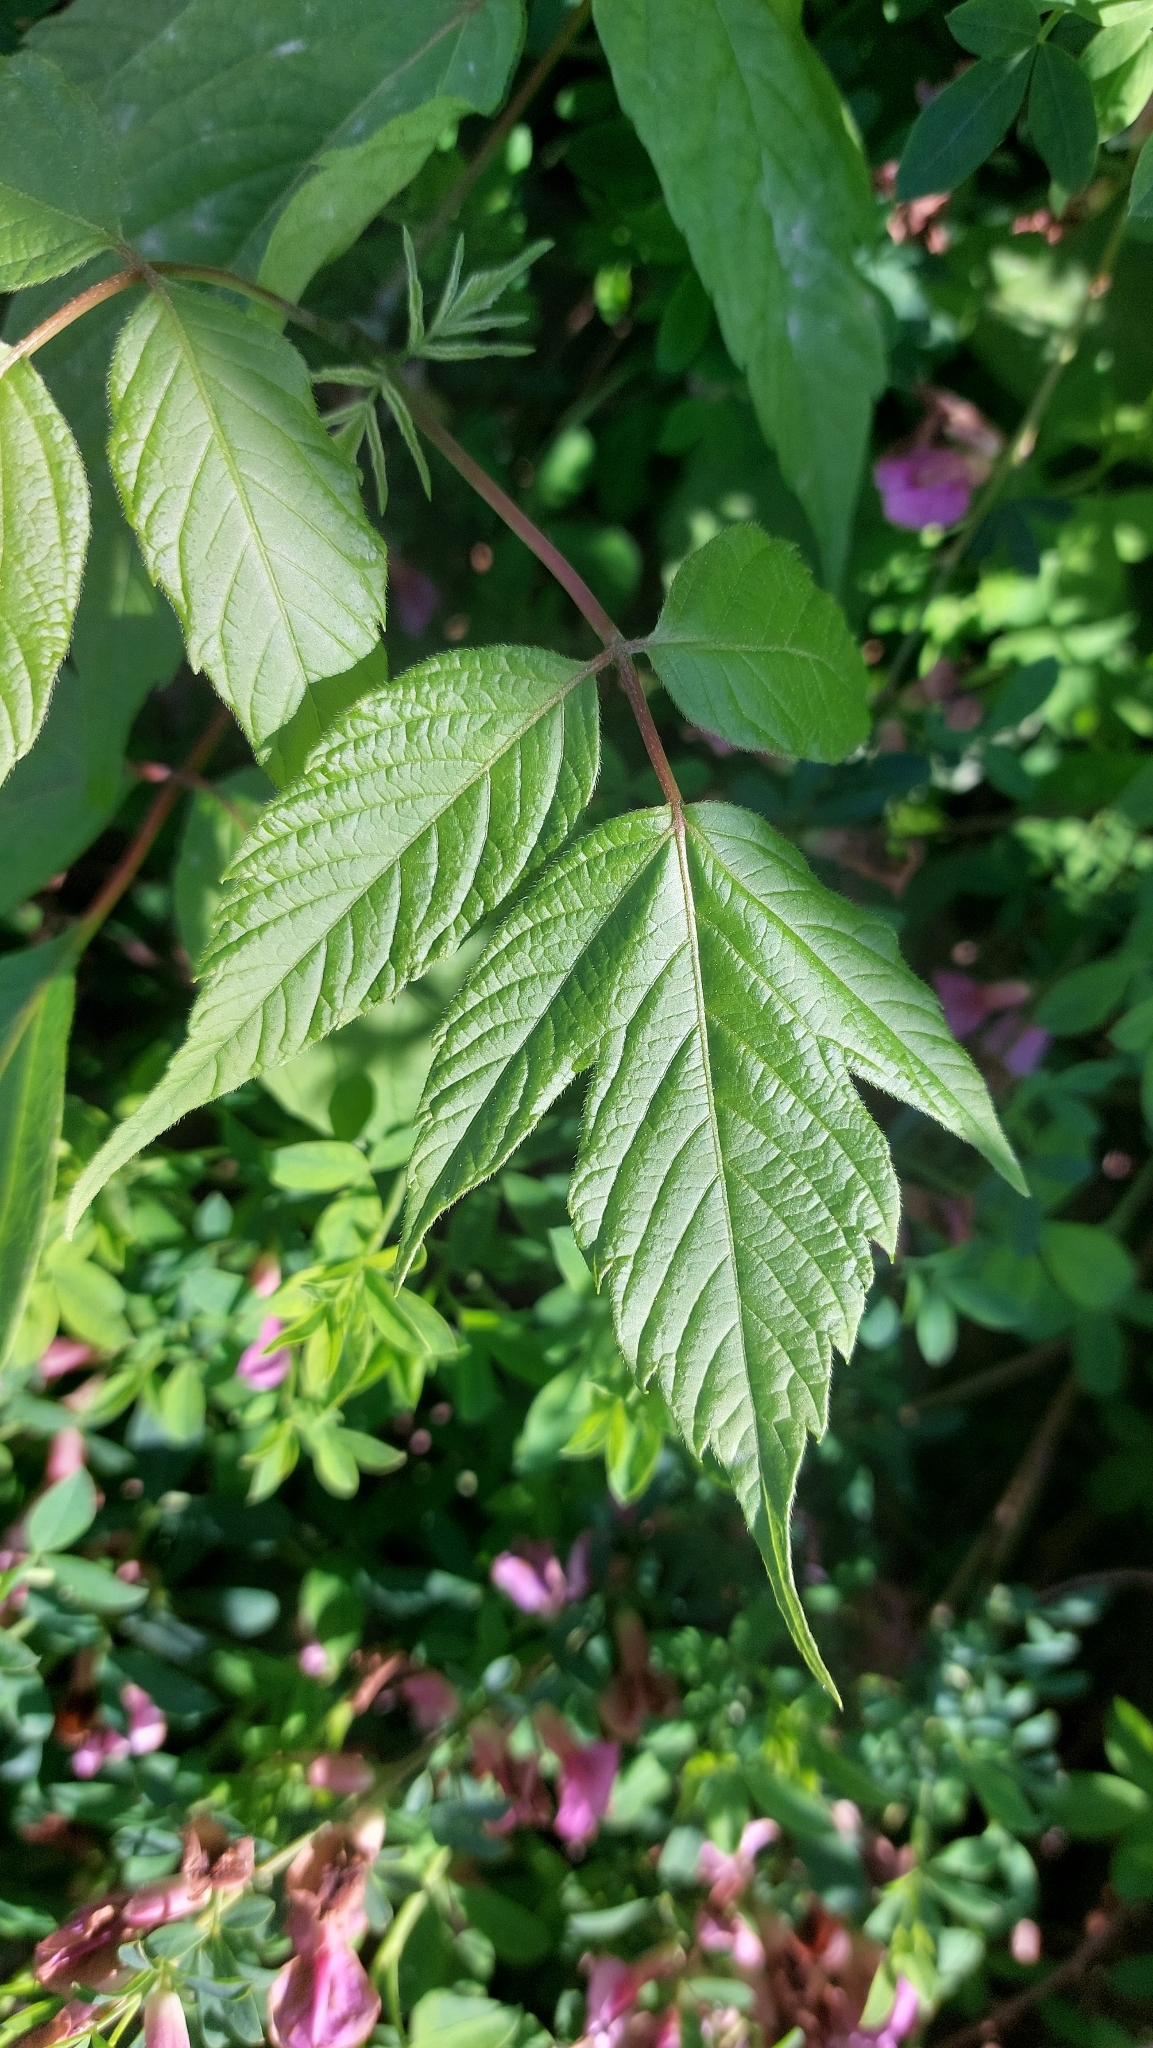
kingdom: Plantae
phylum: Tracheophyta
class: Magnoliopsida
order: Sapindales
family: Sapindaceae
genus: Acer
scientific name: Acer negundo
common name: Ashleaf maple
